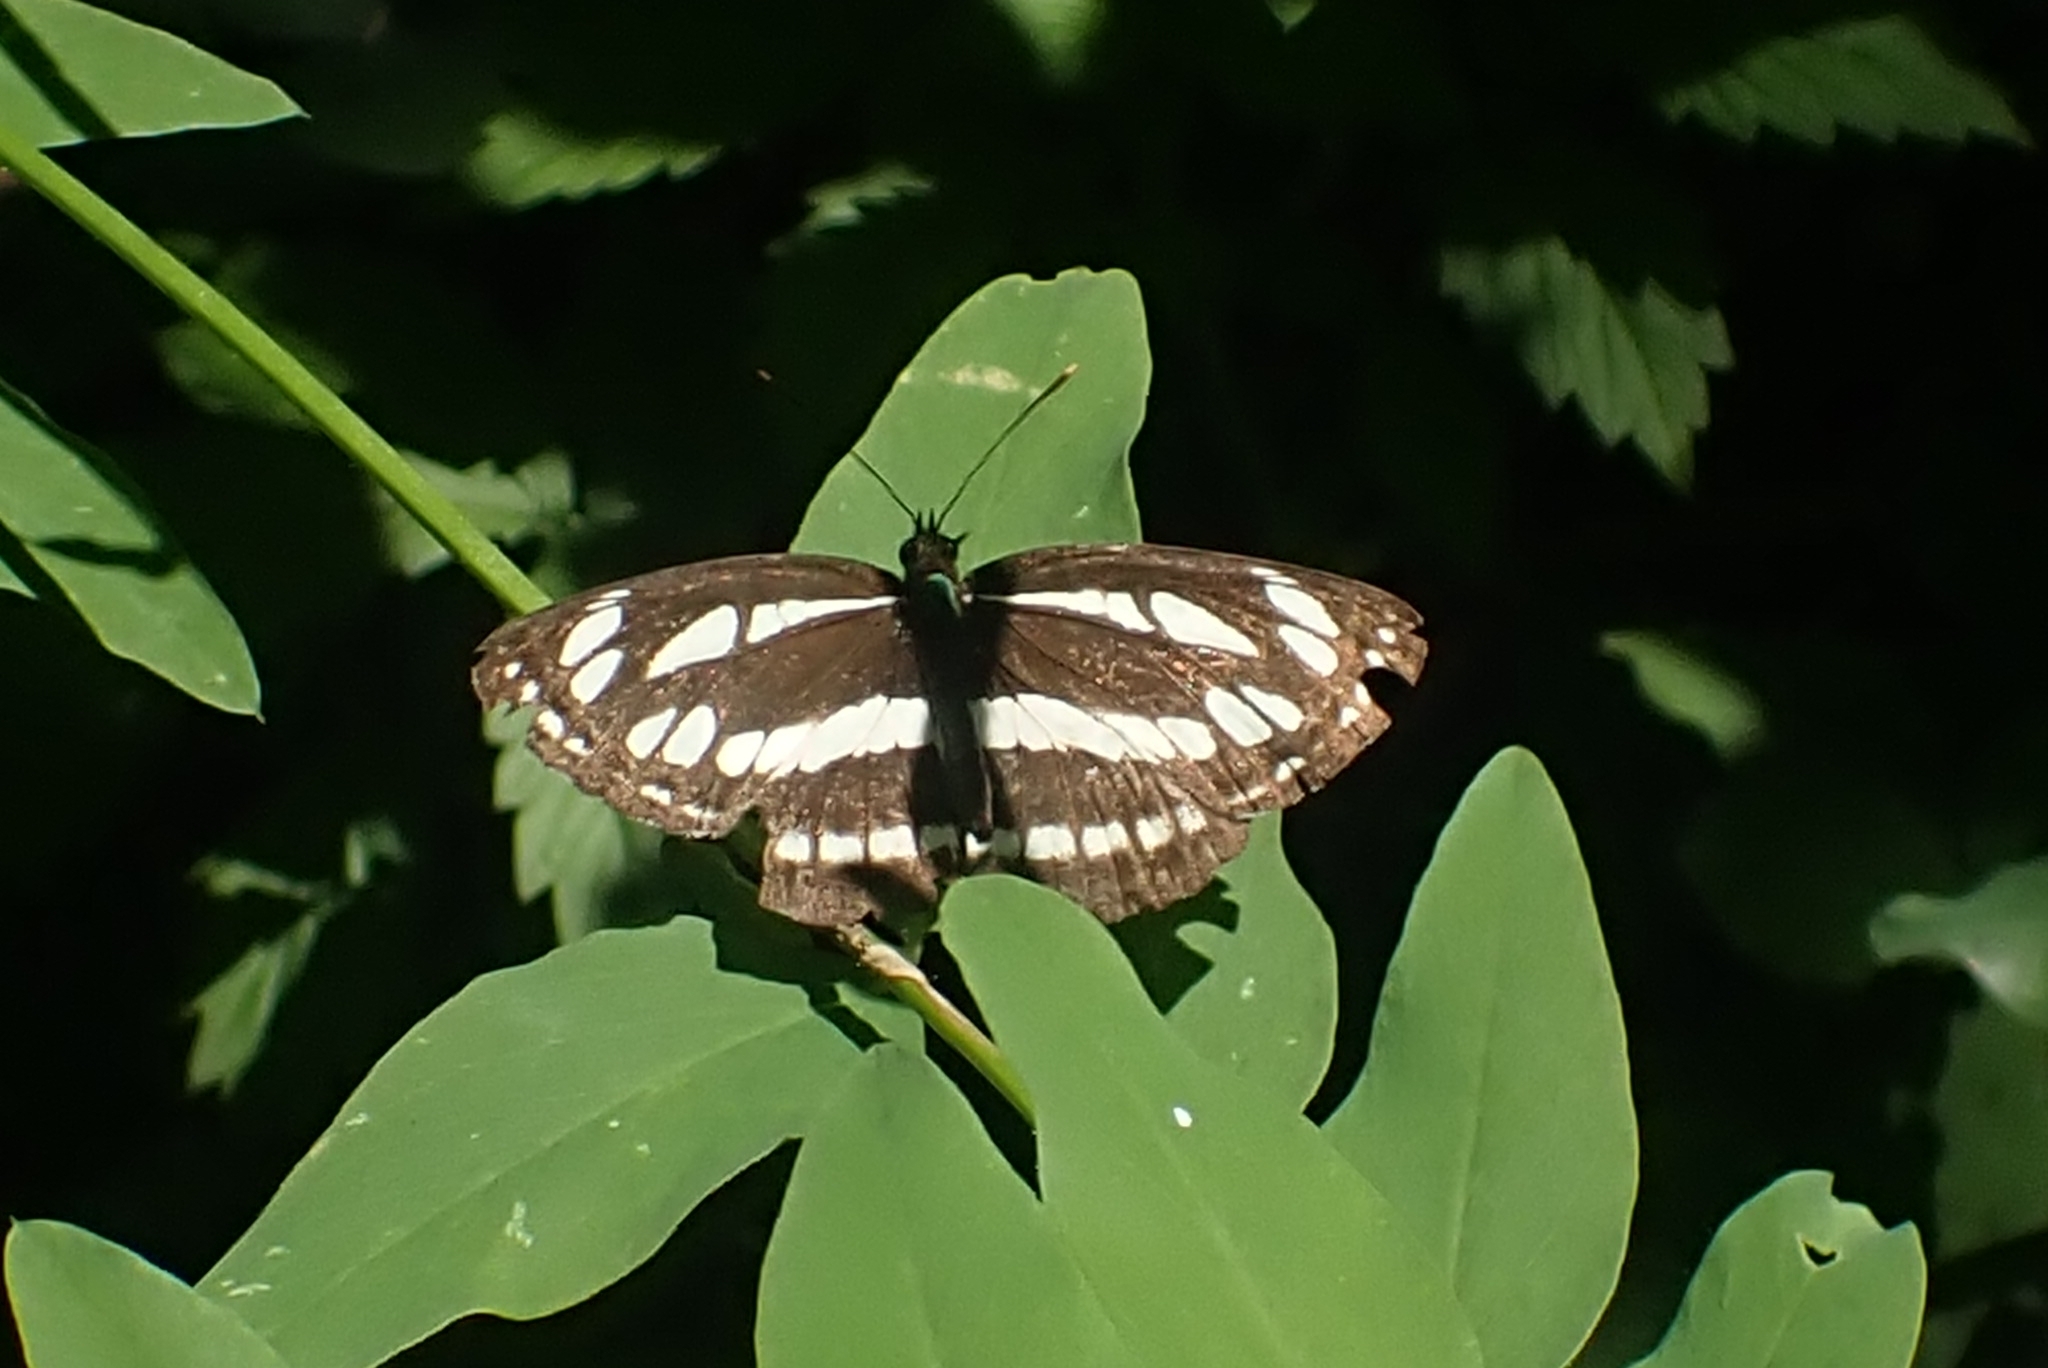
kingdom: Animalia
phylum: Arthropoda
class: Insecta
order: Lepidoptera
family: Nymphalidae
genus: Neptis
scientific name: Neptis sappho
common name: Common glider
